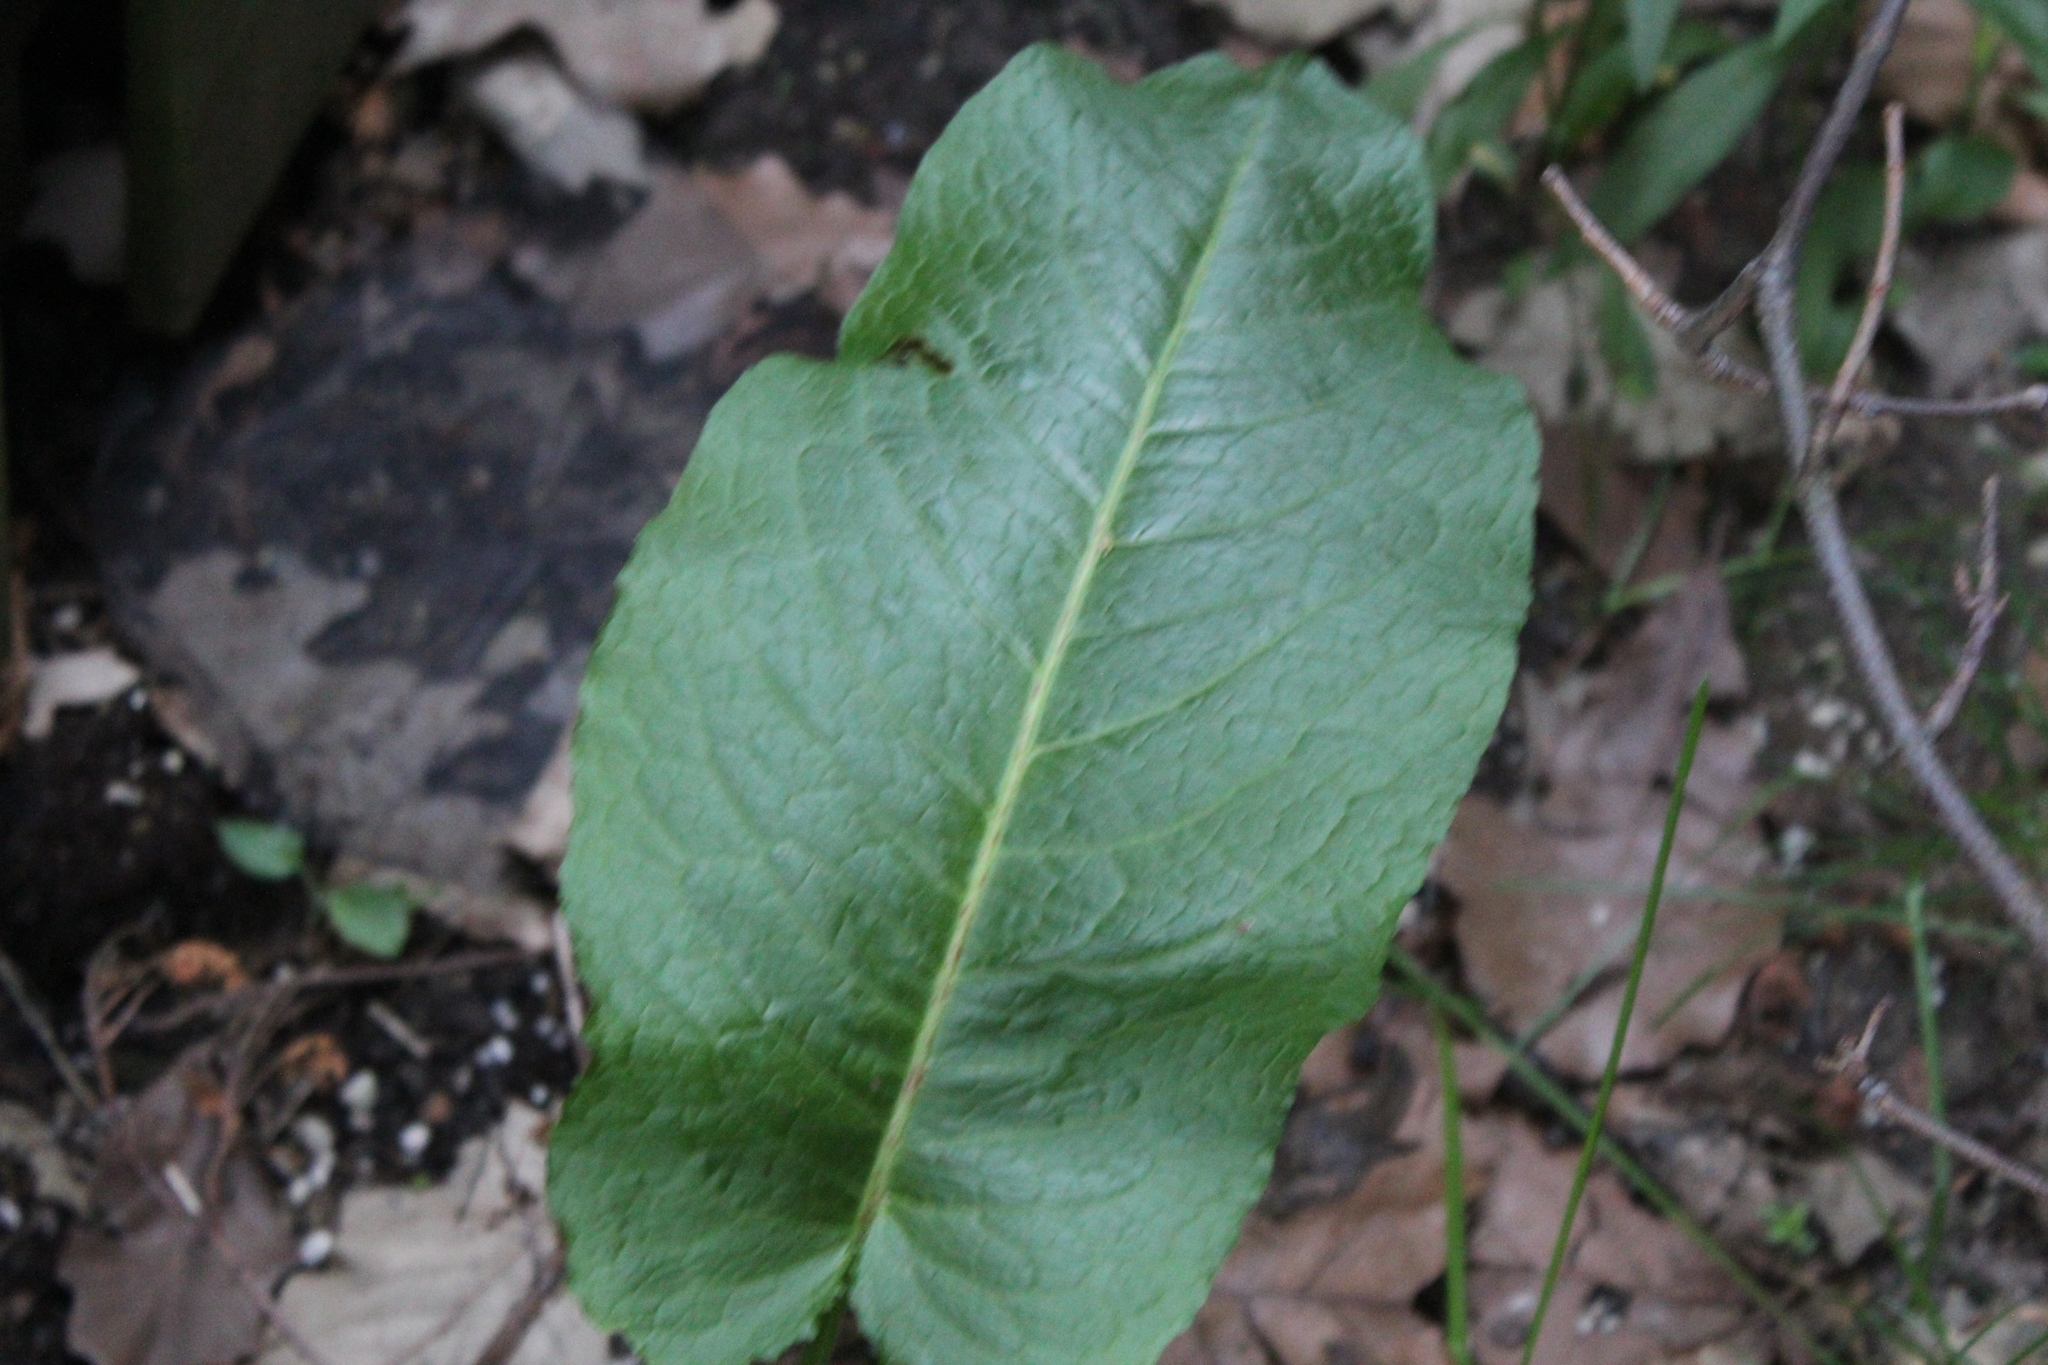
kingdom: Plantae
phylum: Tracheophyta
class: Magnoliopsida
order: Caryophyllales
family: Polygonaceae
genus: Rumex
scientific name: Rumex obtusifolius
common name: Bitter dock
